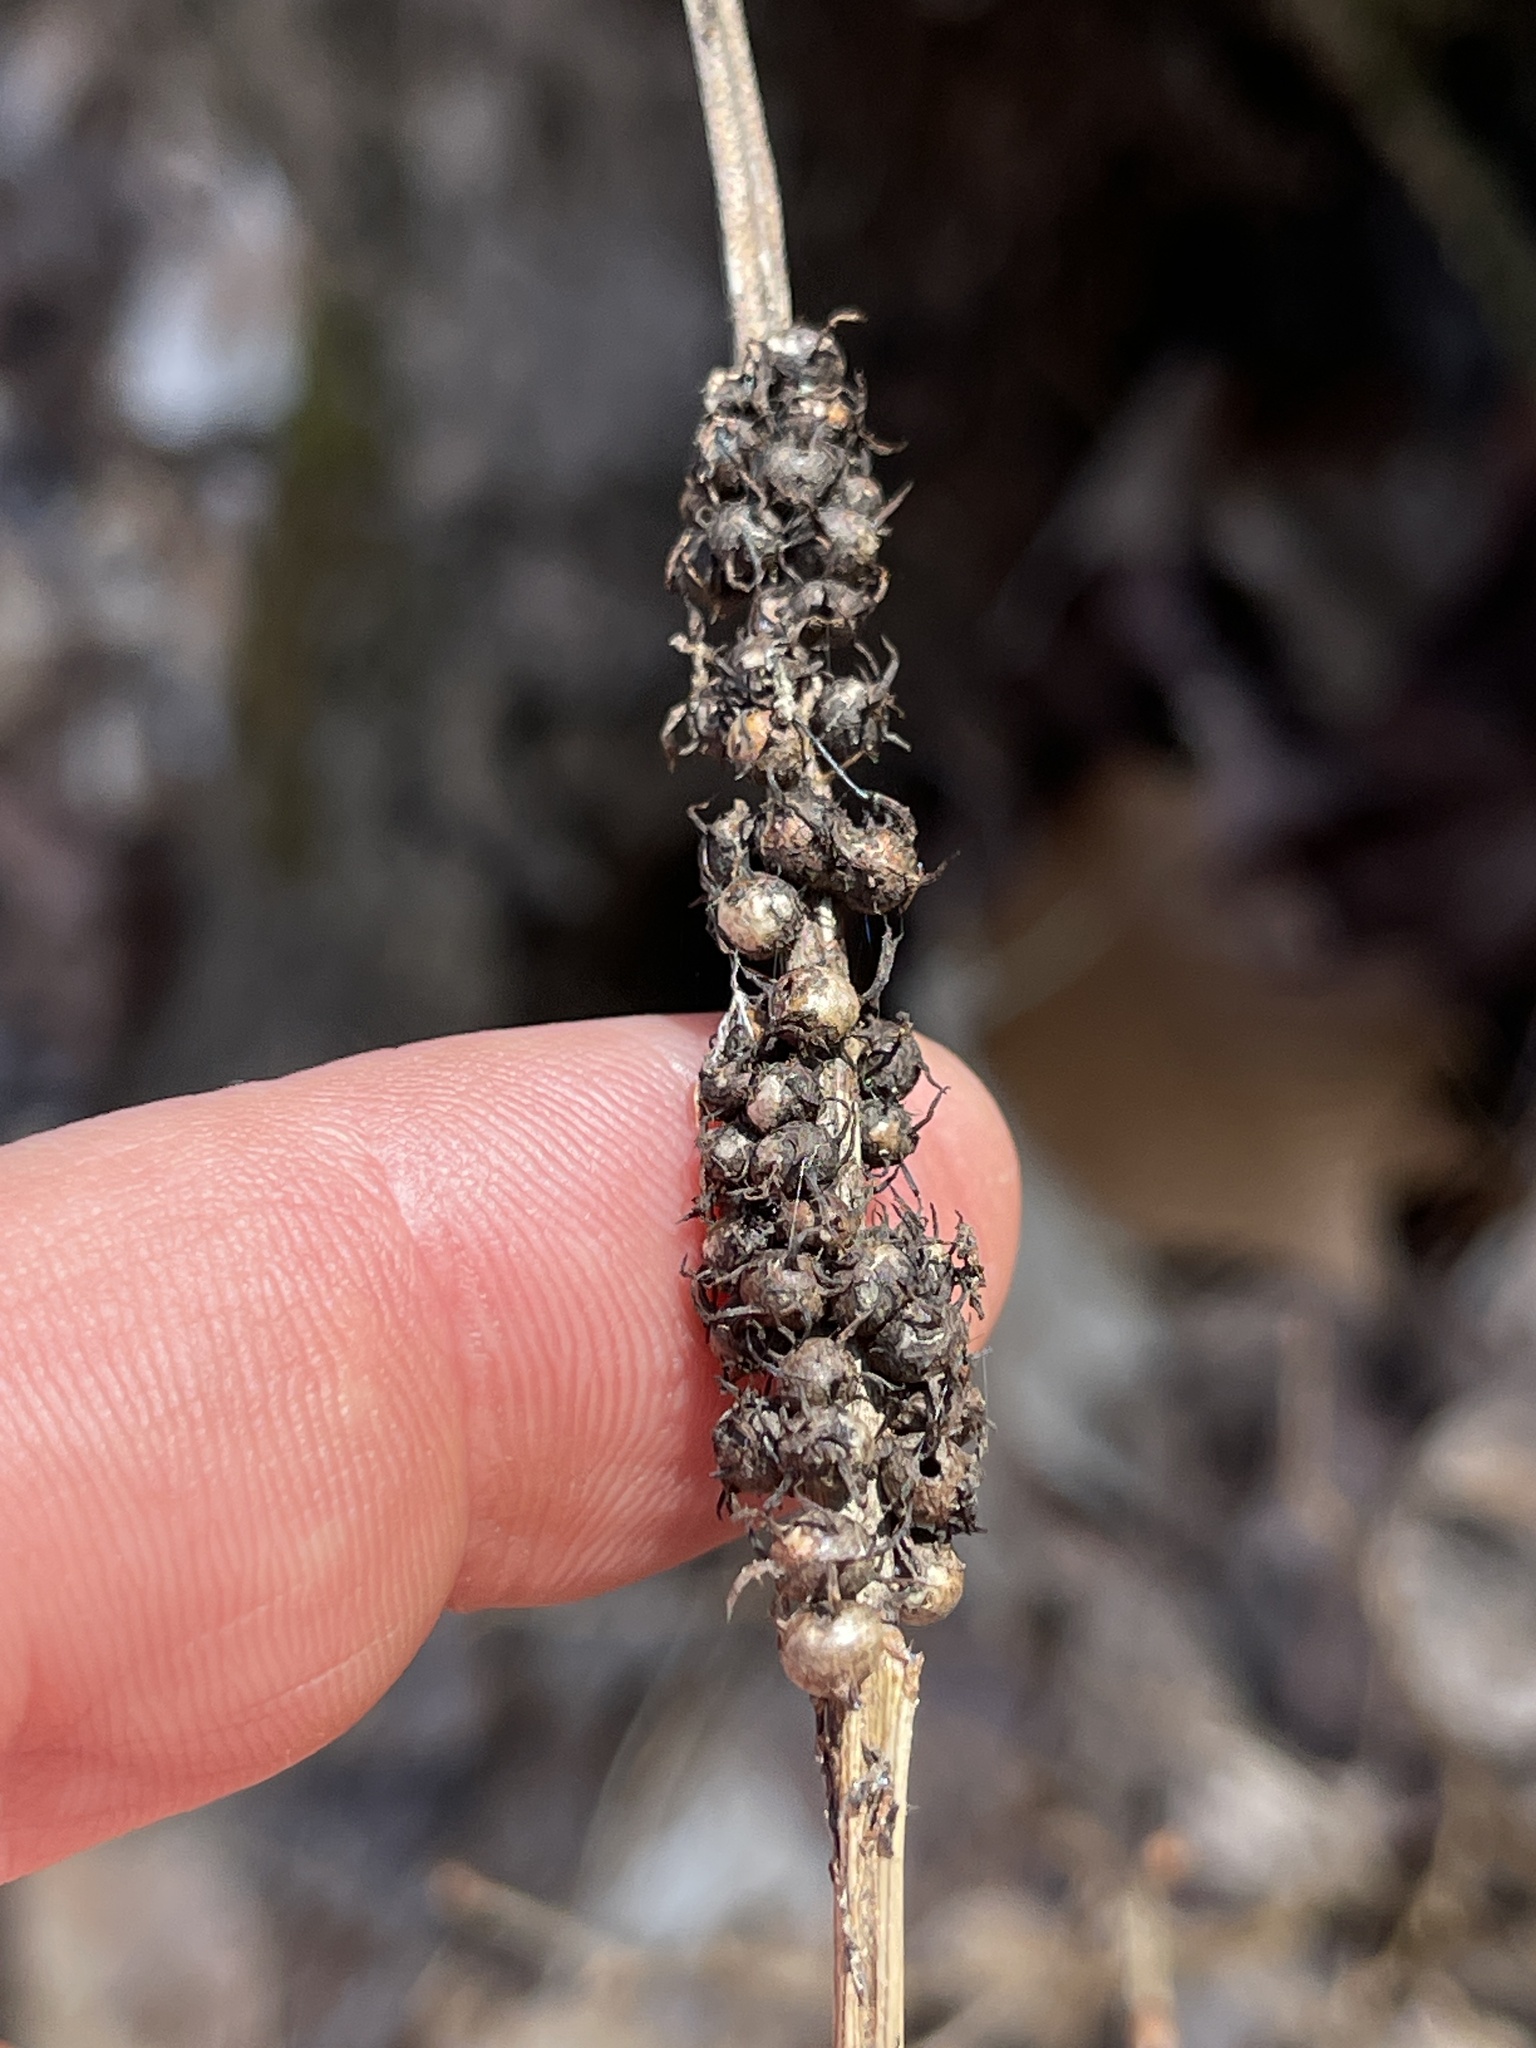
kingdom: Animalia
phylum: Arthropoda
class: Insecta
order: Hymenoptera
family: Cynipidae
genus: Diastrophus
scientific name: Diastrophus
